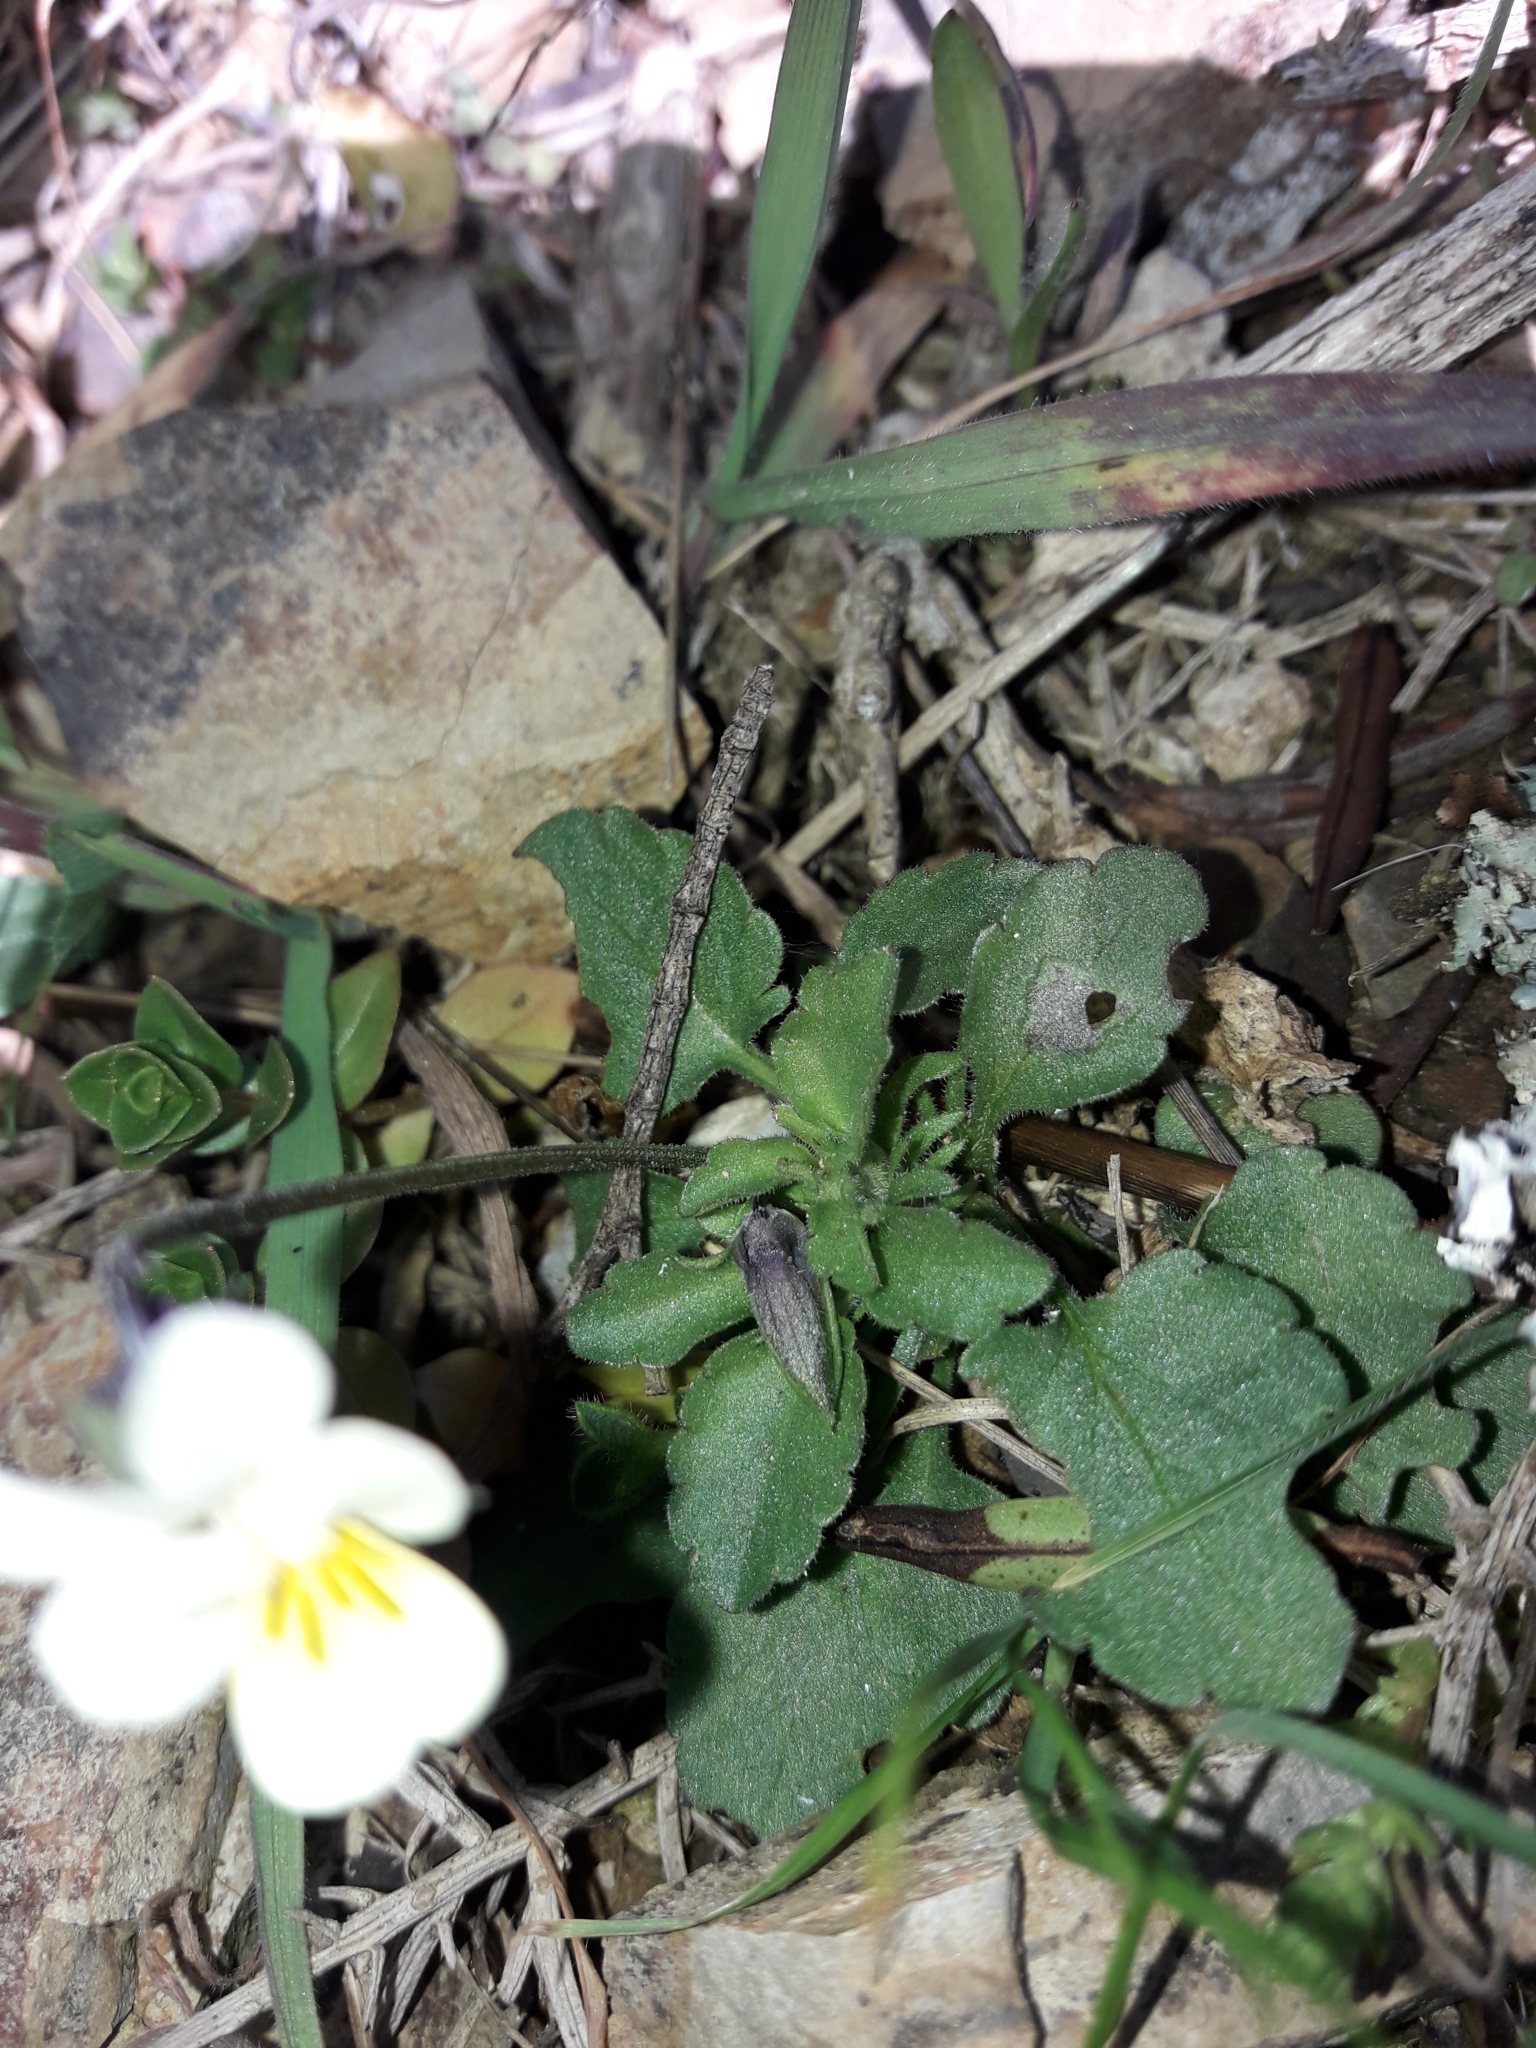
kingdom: Plantae
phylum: Tracheophyta
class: Magnoliopsida
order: Malpighiales
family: Violaceae
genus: Viola
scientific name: Viola arvensis
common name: Field pansy
